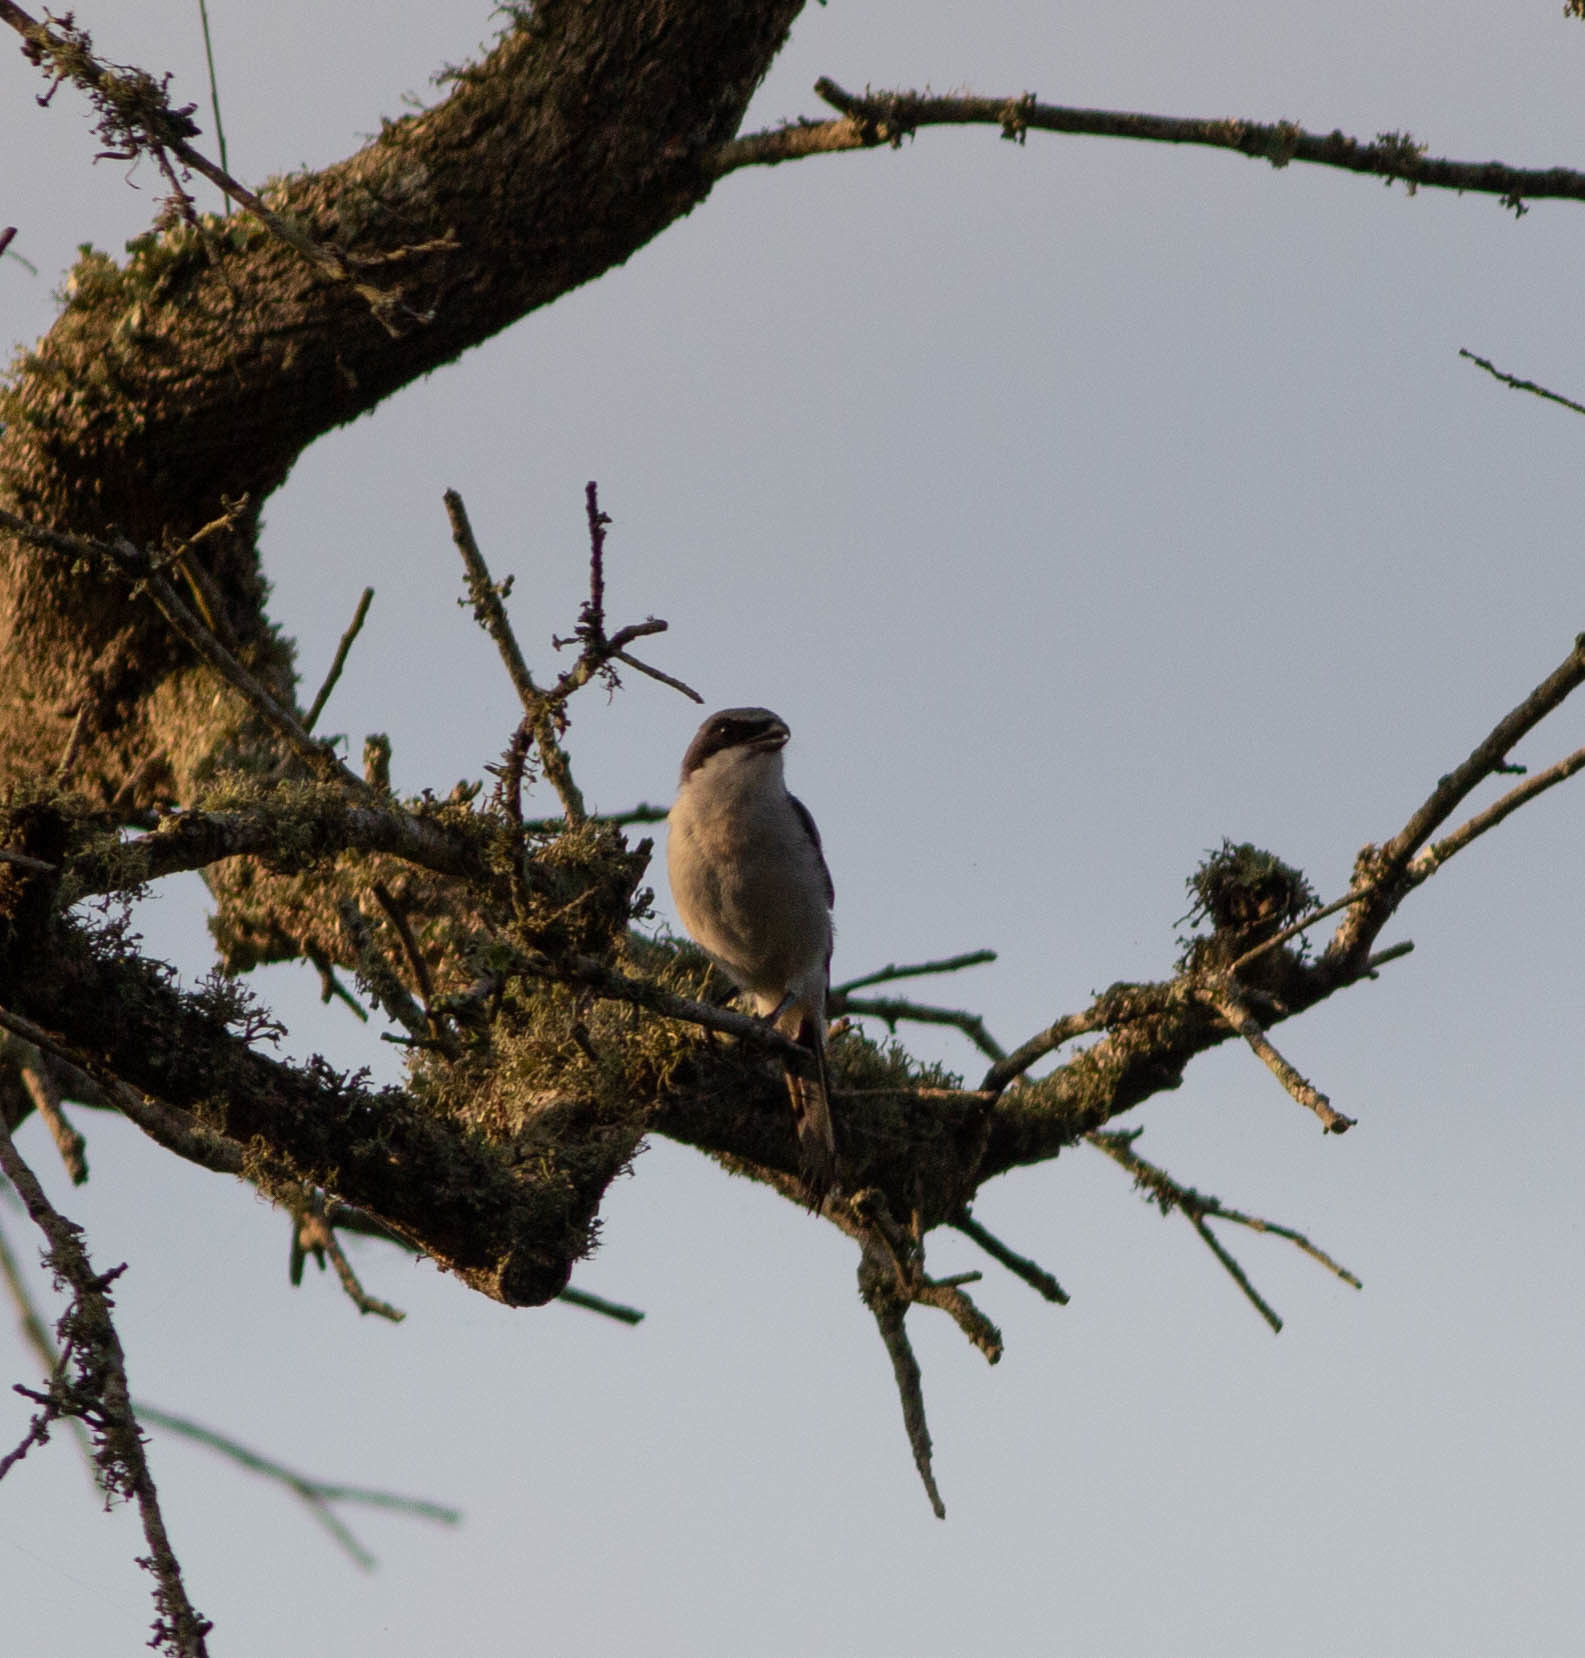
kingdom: Animalia
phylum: Chordata
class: Aves
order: Passeriformes
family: Laniidae
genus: Lanius
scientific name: Lanius ludovicianus
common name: Loggerhead shrike
